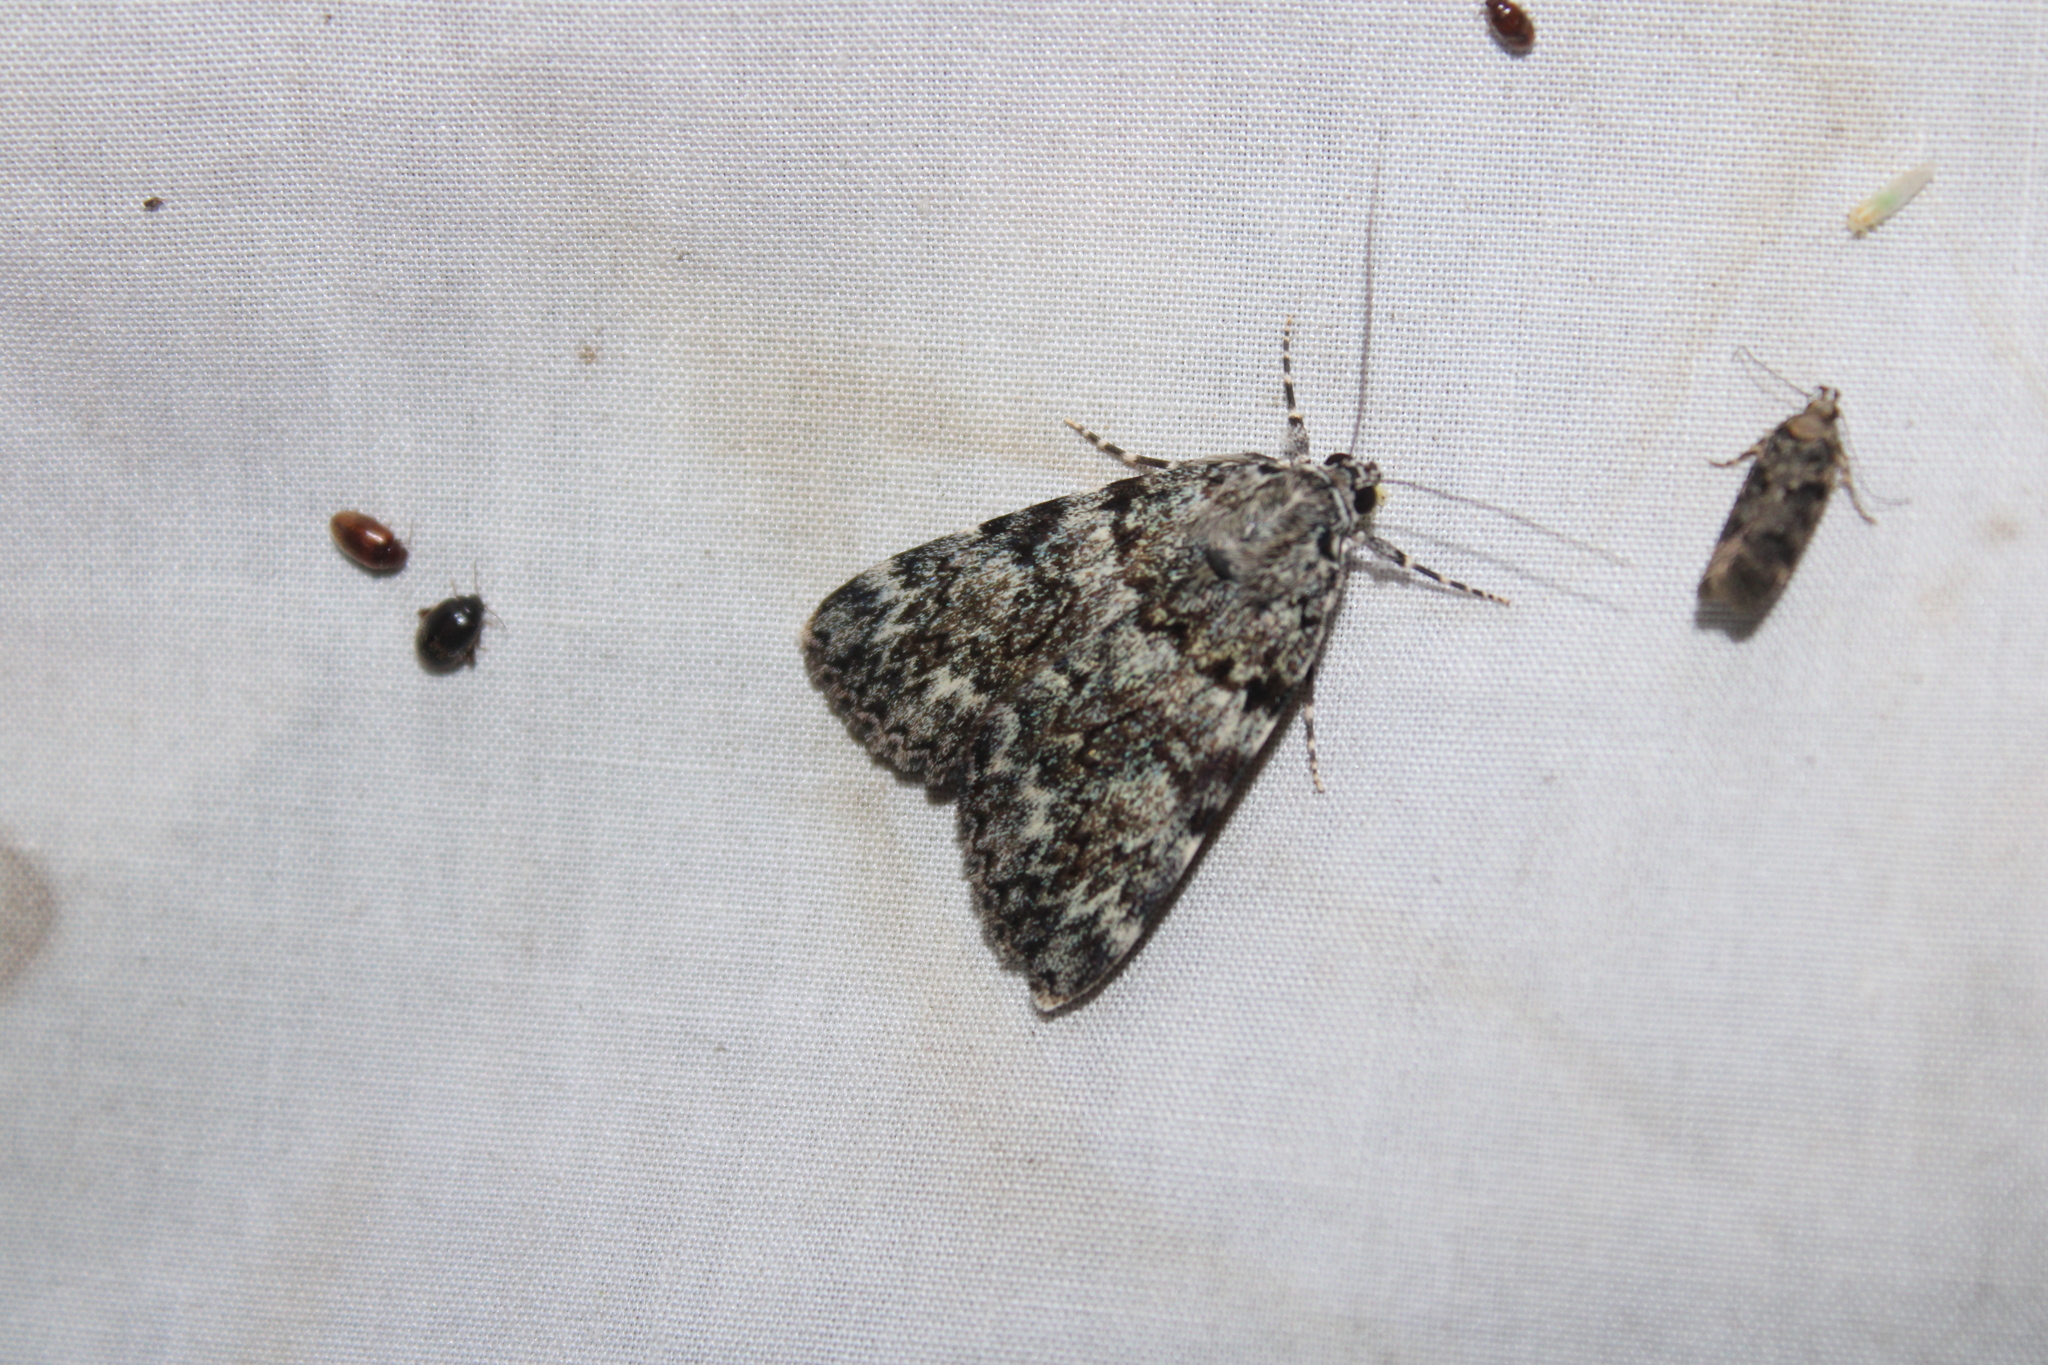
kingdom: Animalia
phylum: Arthropoda
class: Insecta
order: Lepidoptera
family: Erebidae
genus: Catocala
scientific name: Catocala lineella
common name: Little lined underwing
